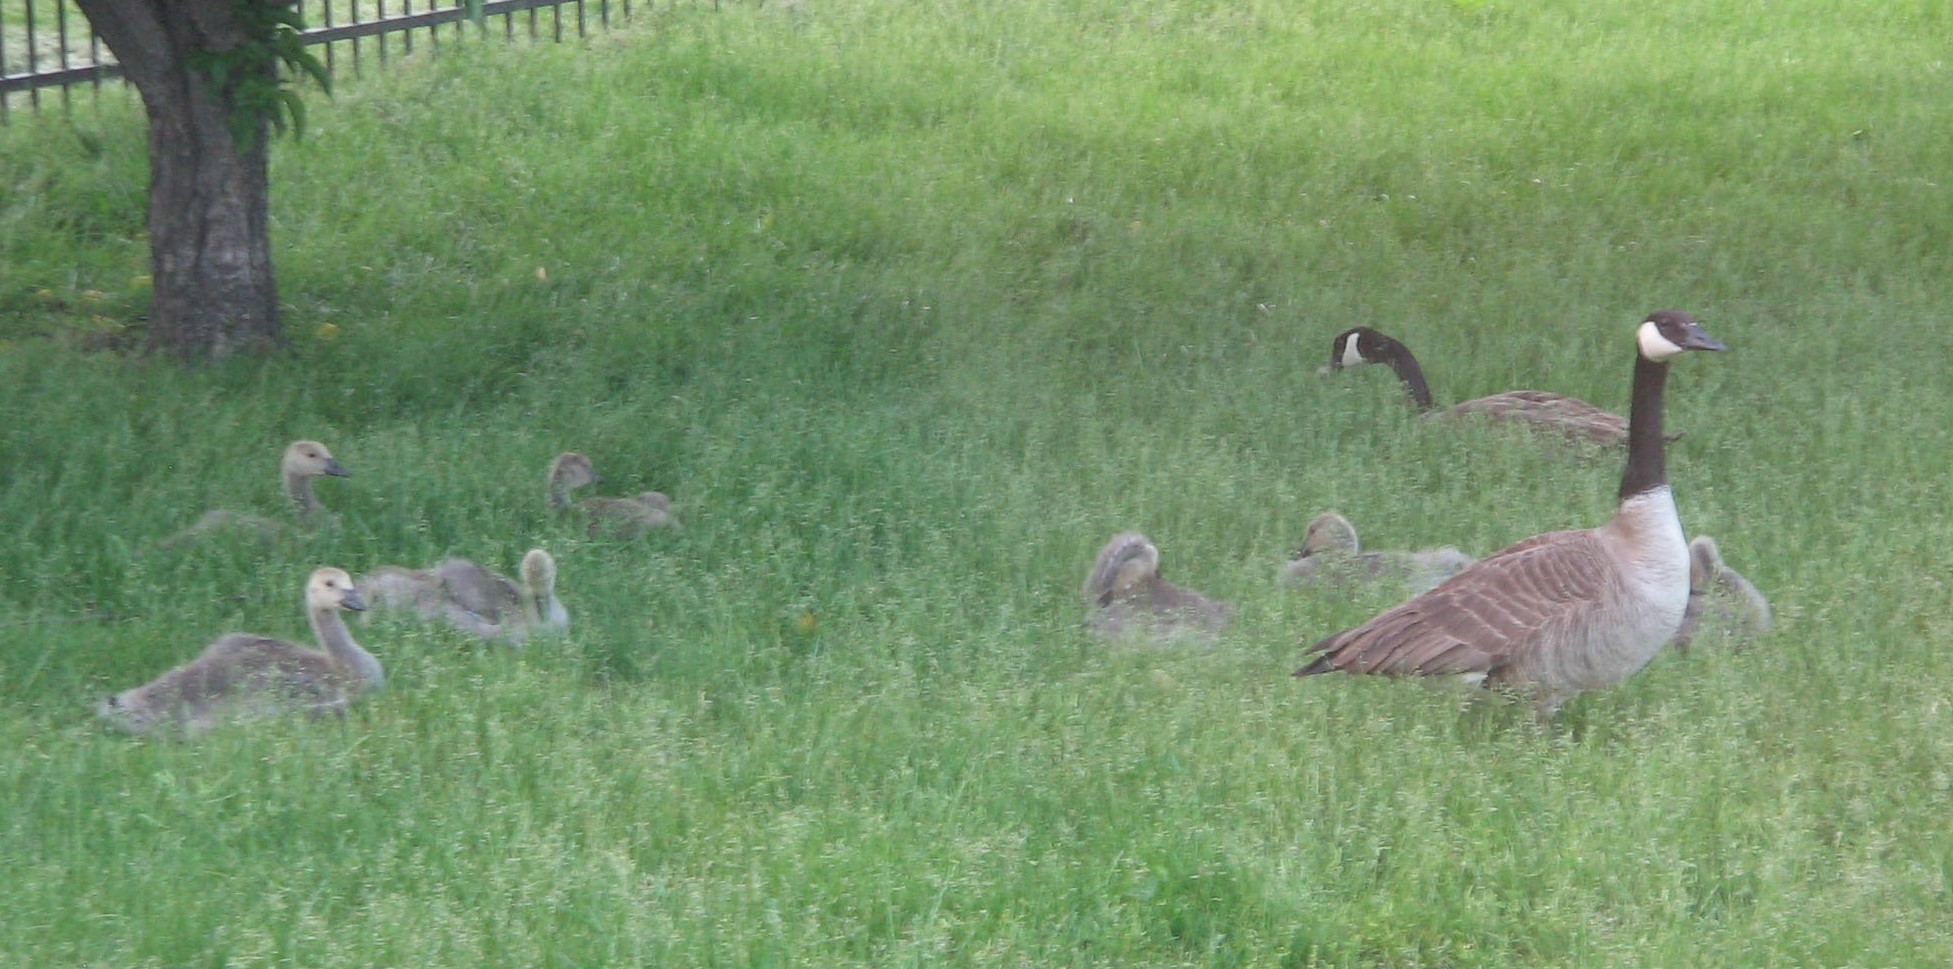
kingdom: Animalia
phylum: Chordata
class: Aves
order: Anseriformes
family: Anatidae
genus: Branta
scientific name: Branta canadensis
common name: Canada goose
